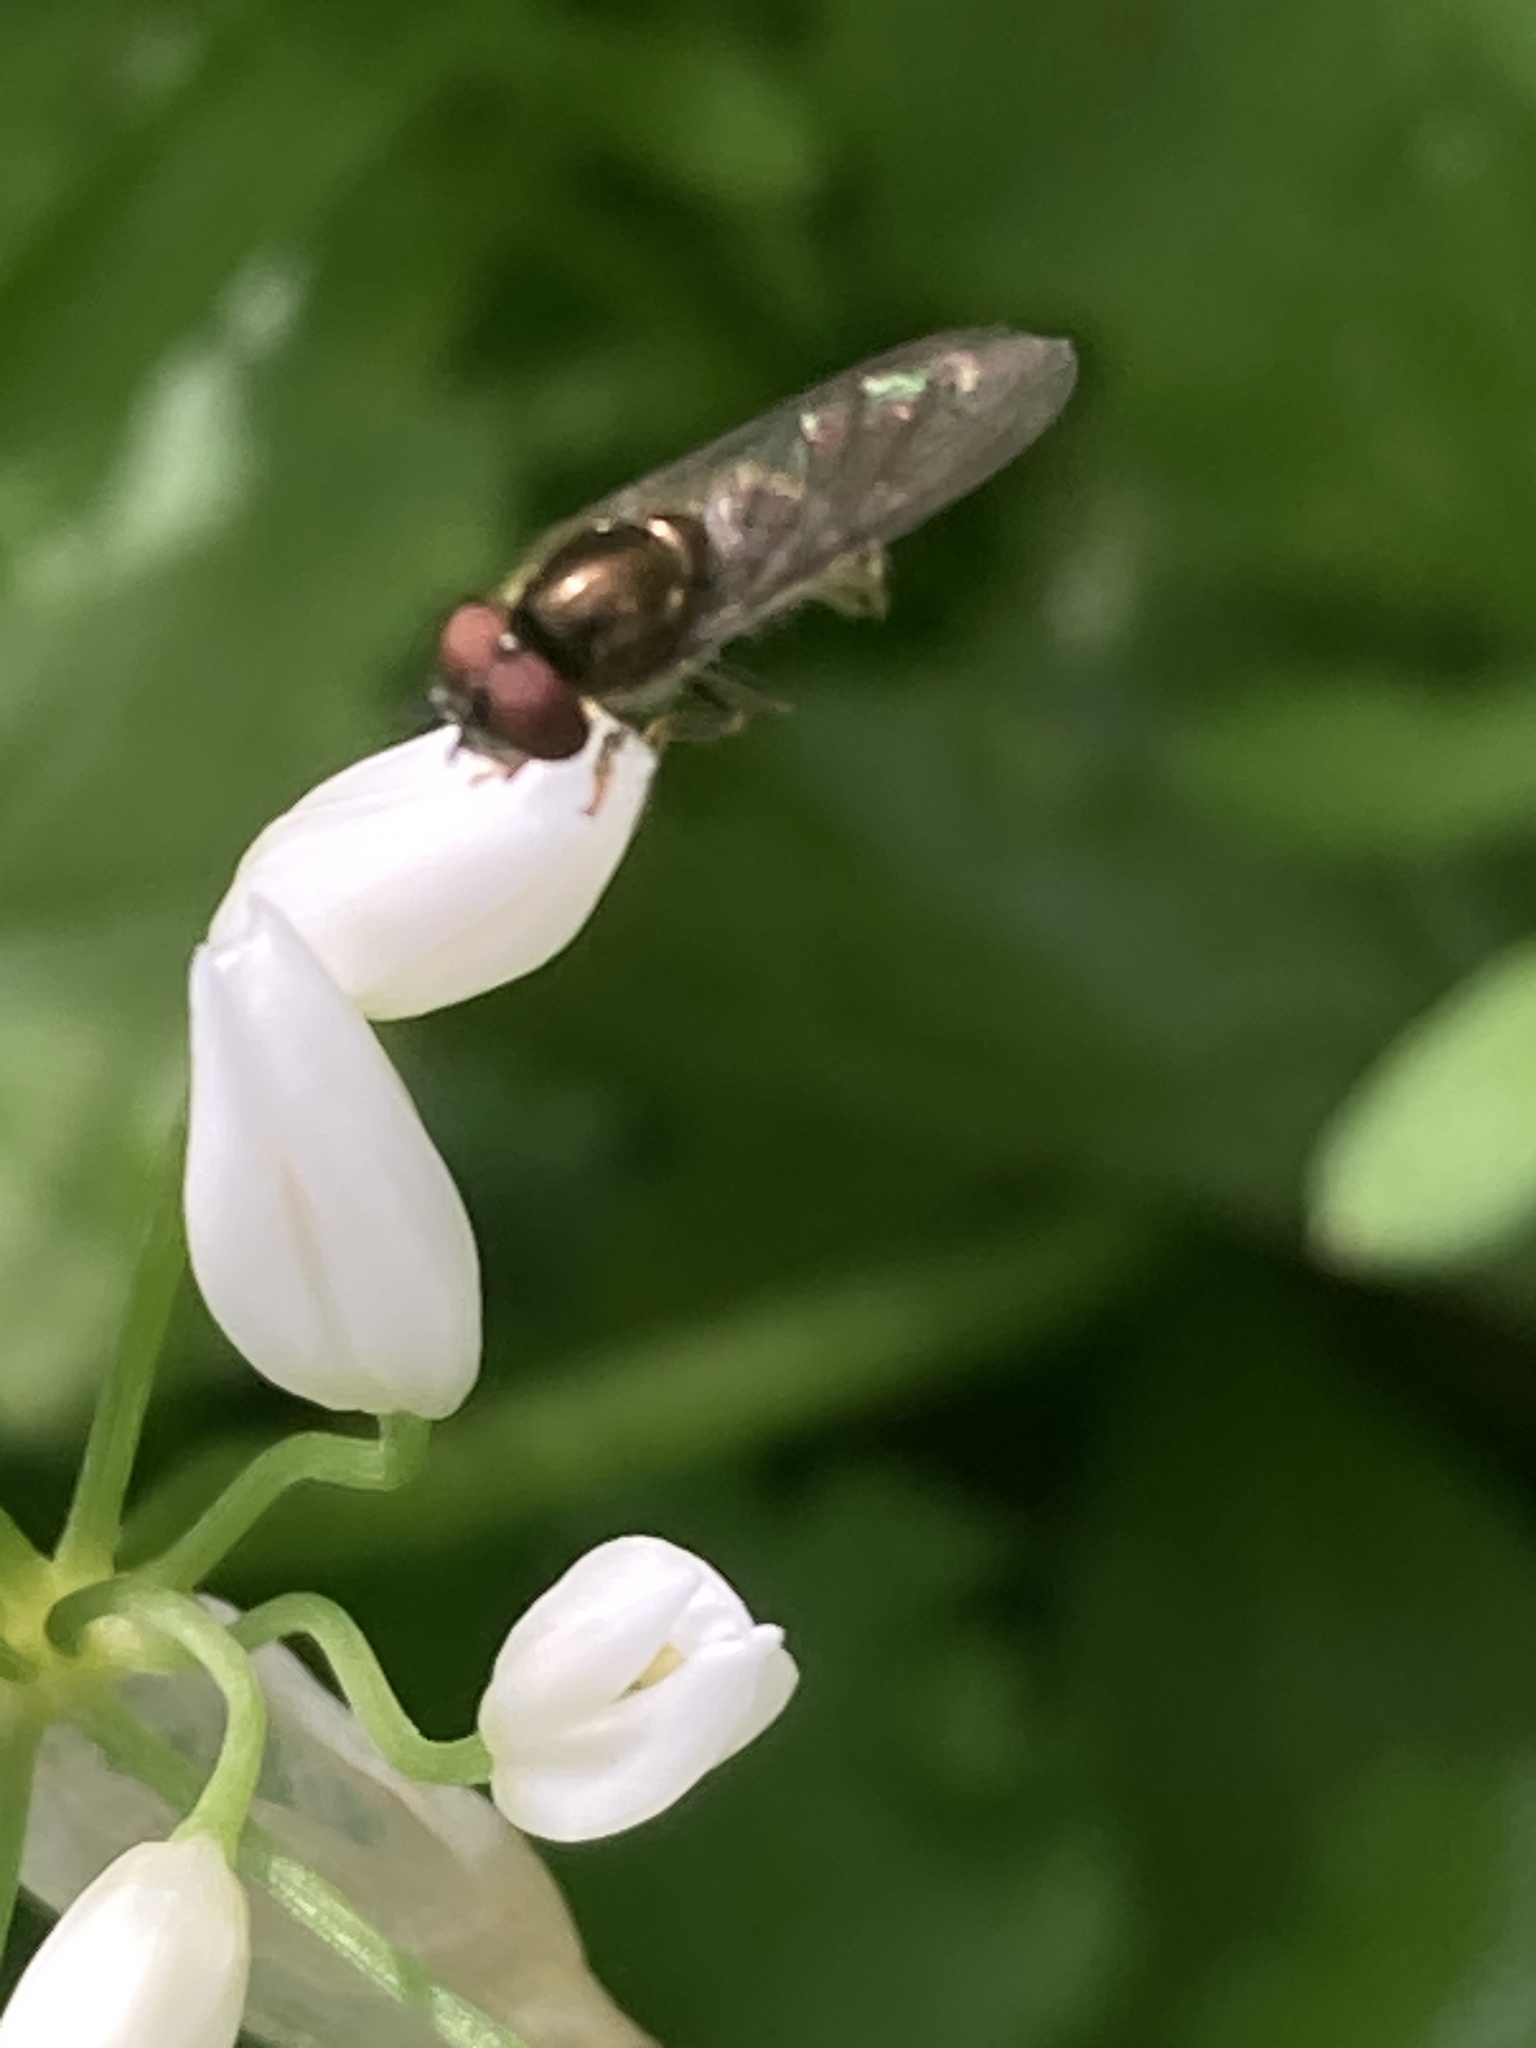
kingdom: Animalia
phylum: Arthropoda
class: Insecta
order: Diptera
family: Syrphidae
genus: Platycheirus
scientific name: Platycheirus albimanus
